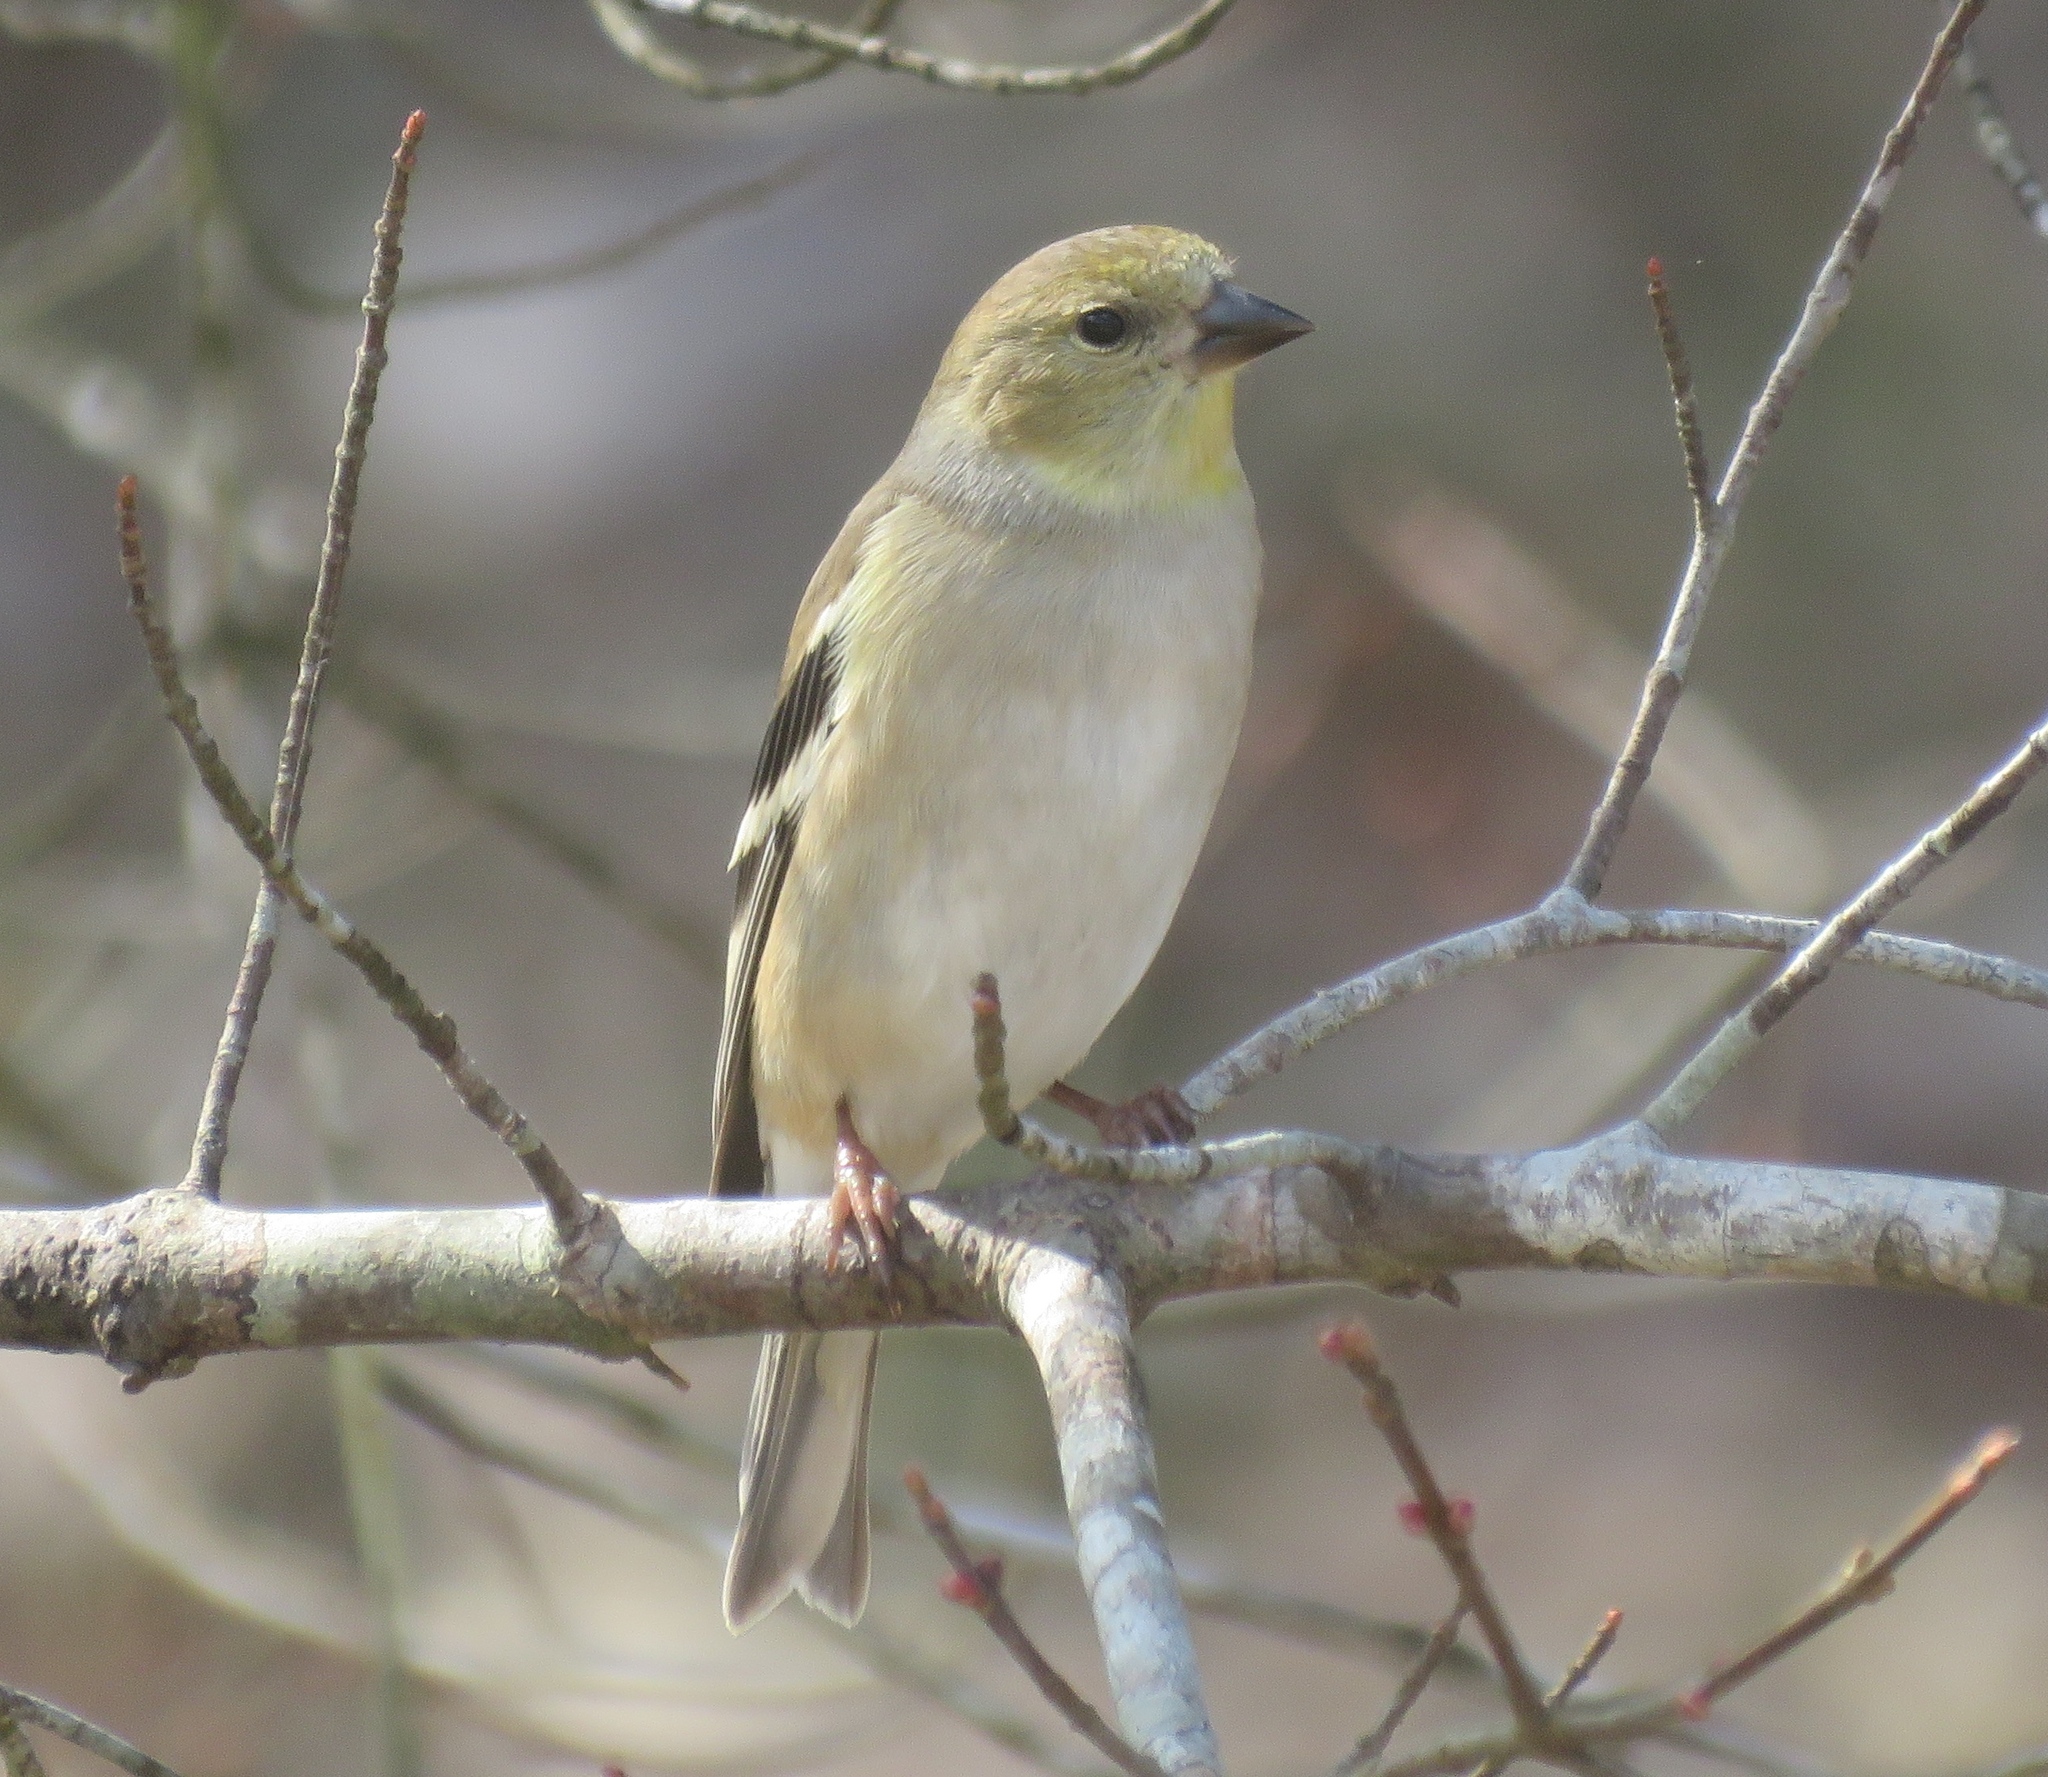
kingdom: Animalia
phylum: Chordata
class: Aves
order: Passeriformes
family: Fringillidae
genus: Spinus
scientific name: Spinus tristis
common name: American goldfinch
